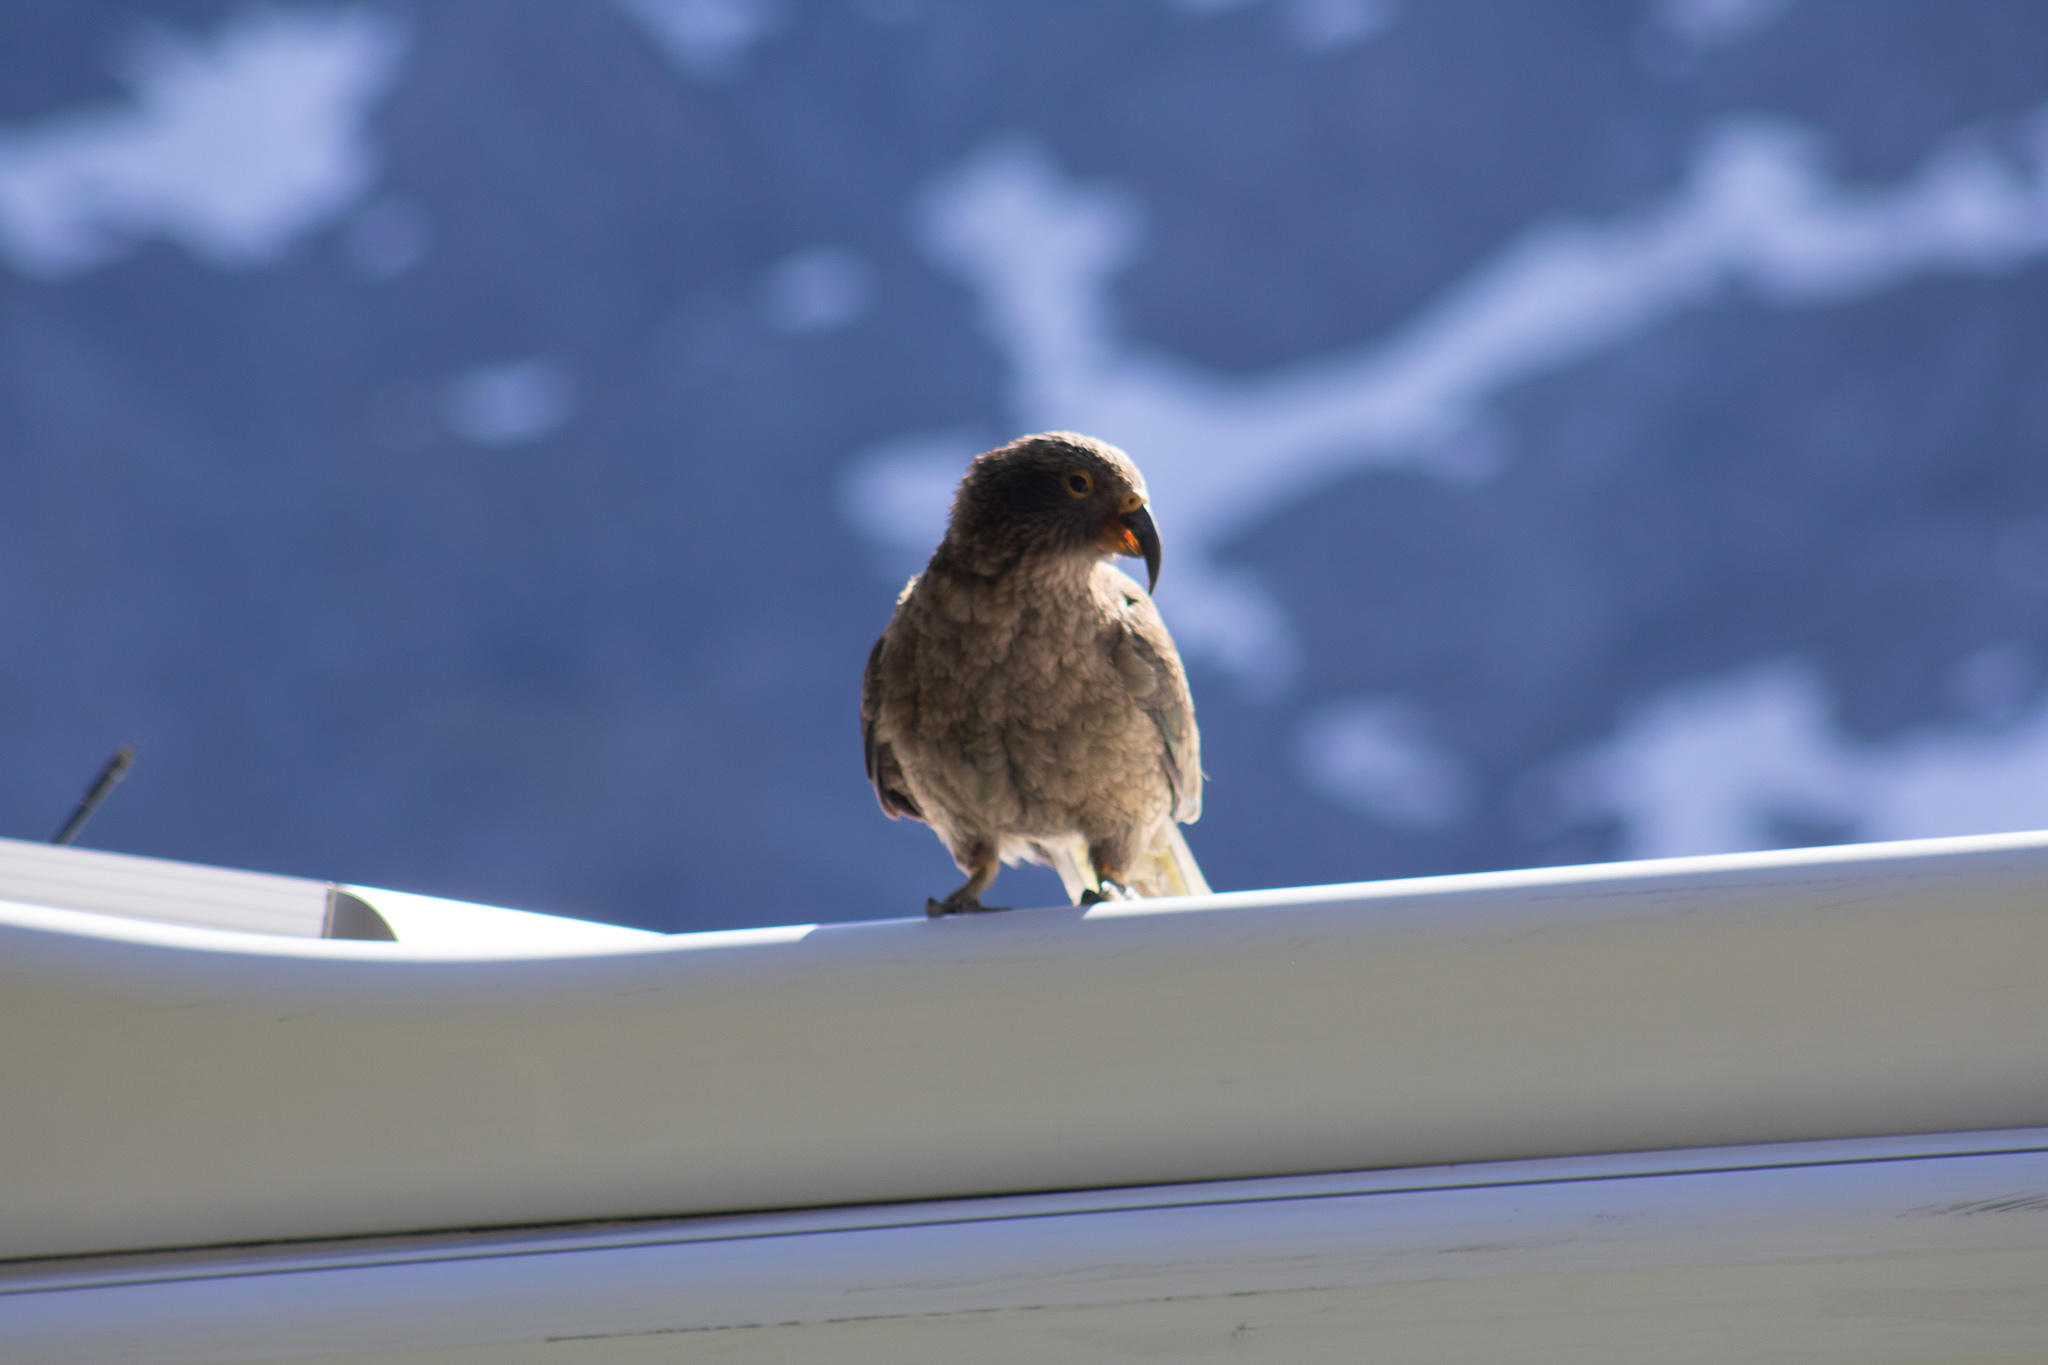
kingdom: Animalia
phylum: Chordata
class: Aves
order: Psittaciformes
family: Psittacidae
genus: Nestor
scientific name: Nestor notabilis
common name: Kea
